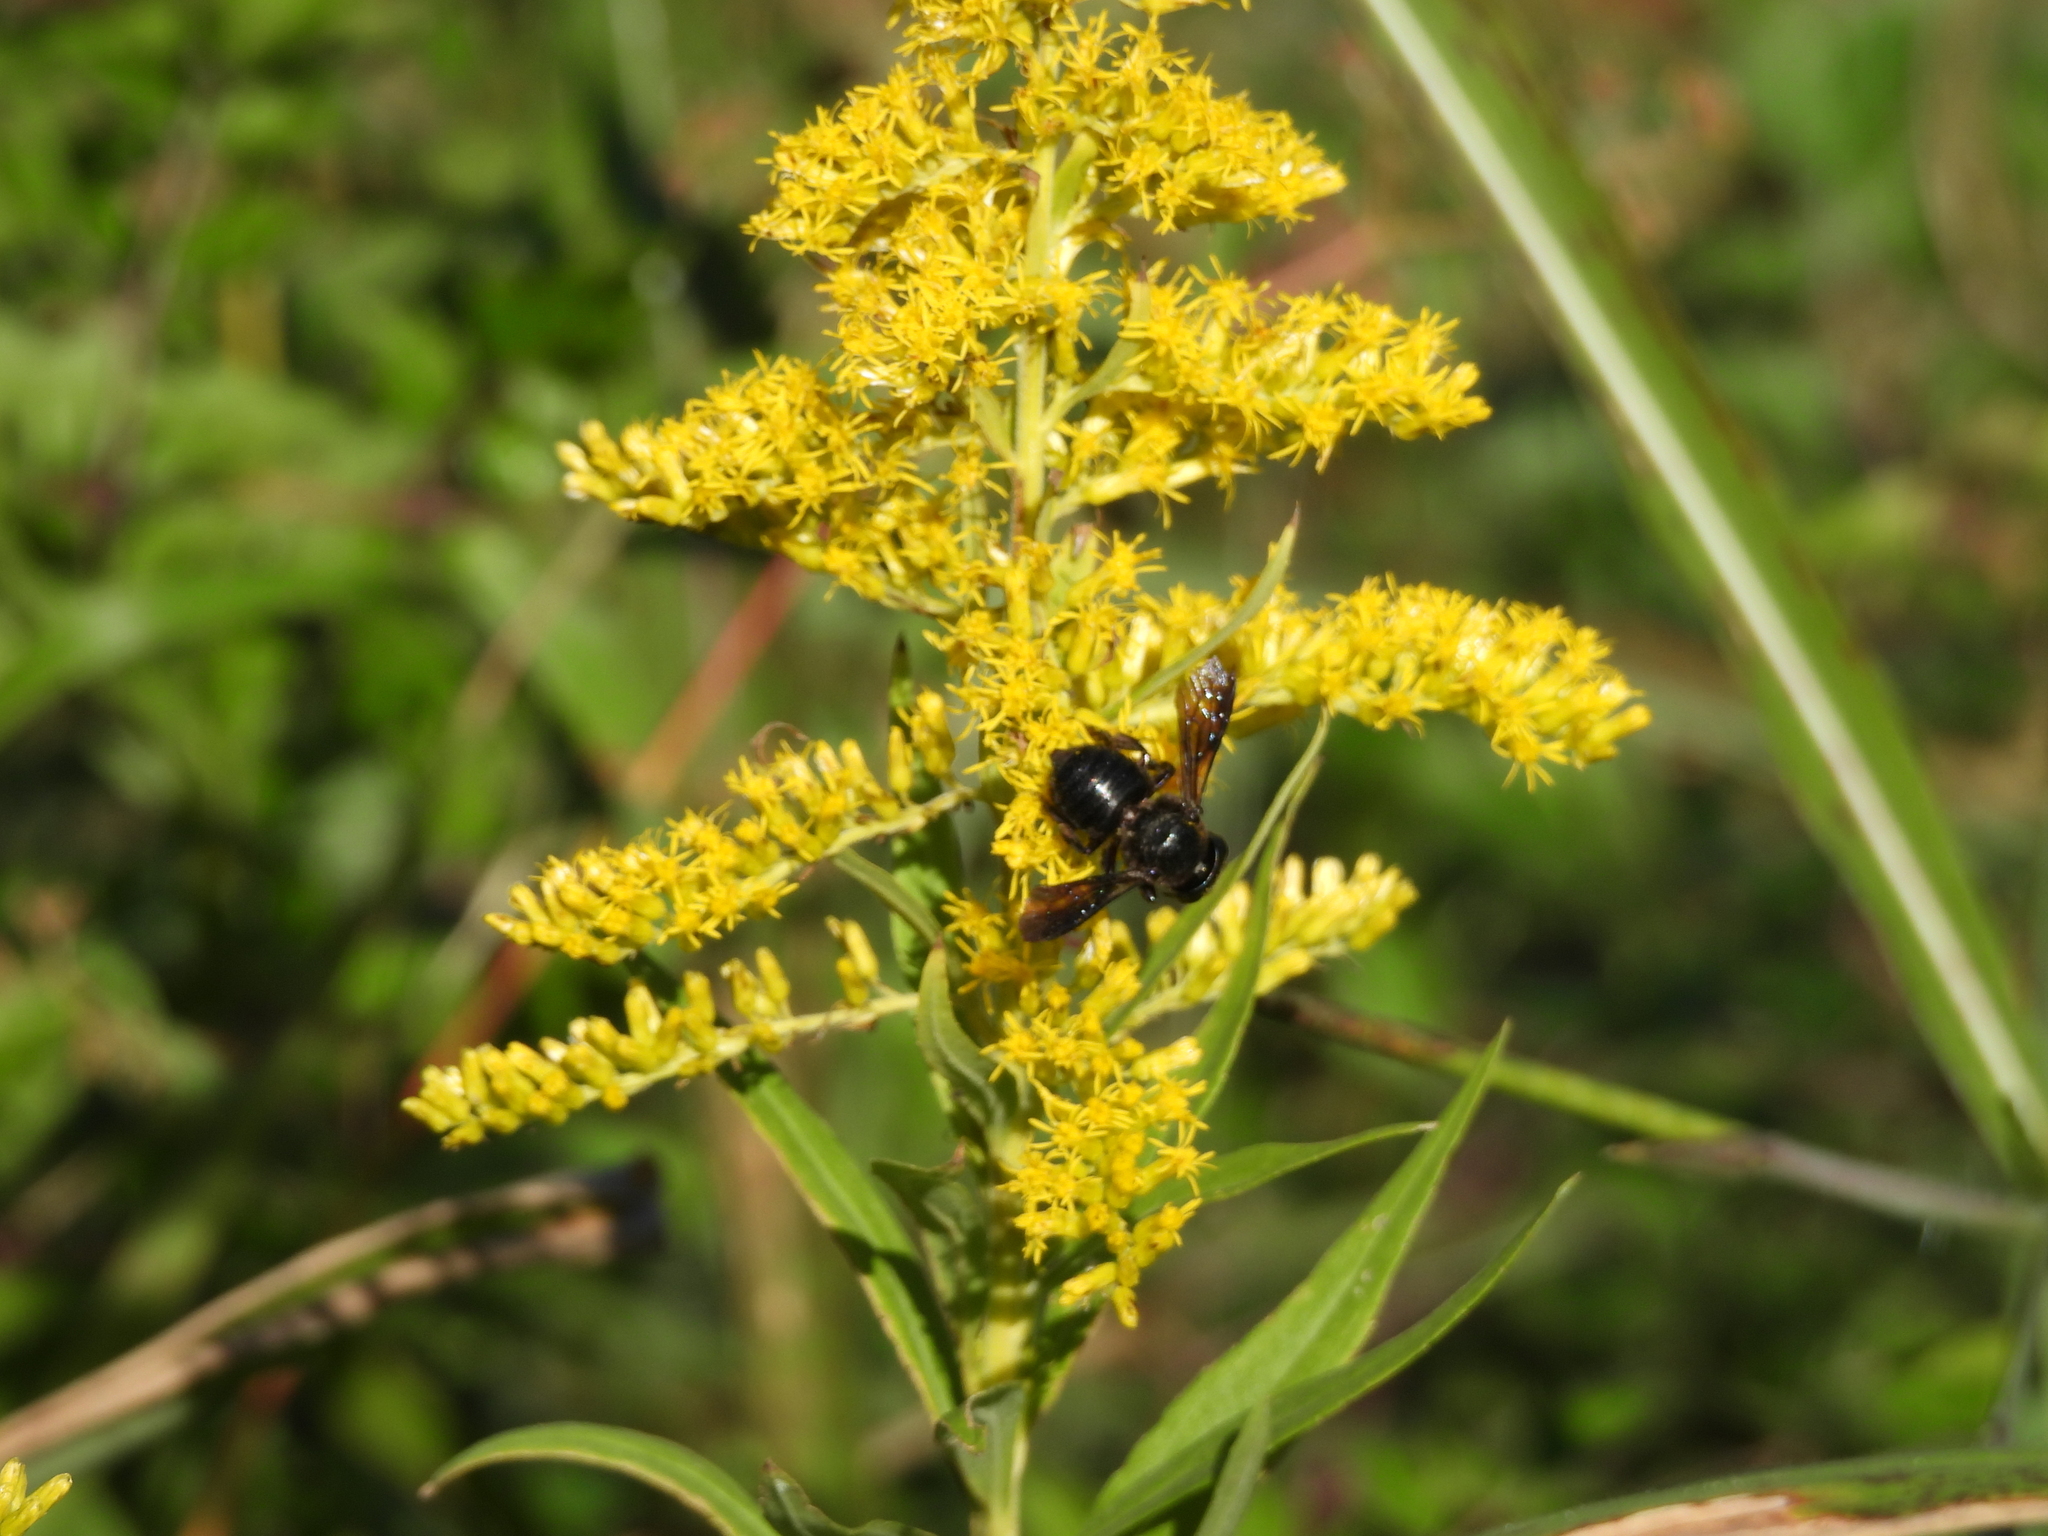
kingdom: Animalia
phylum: Arthropoda
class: Insecta
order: Hymenoptera
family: Megachilidae
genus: Megachile
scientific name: Megachile xylocopoides
